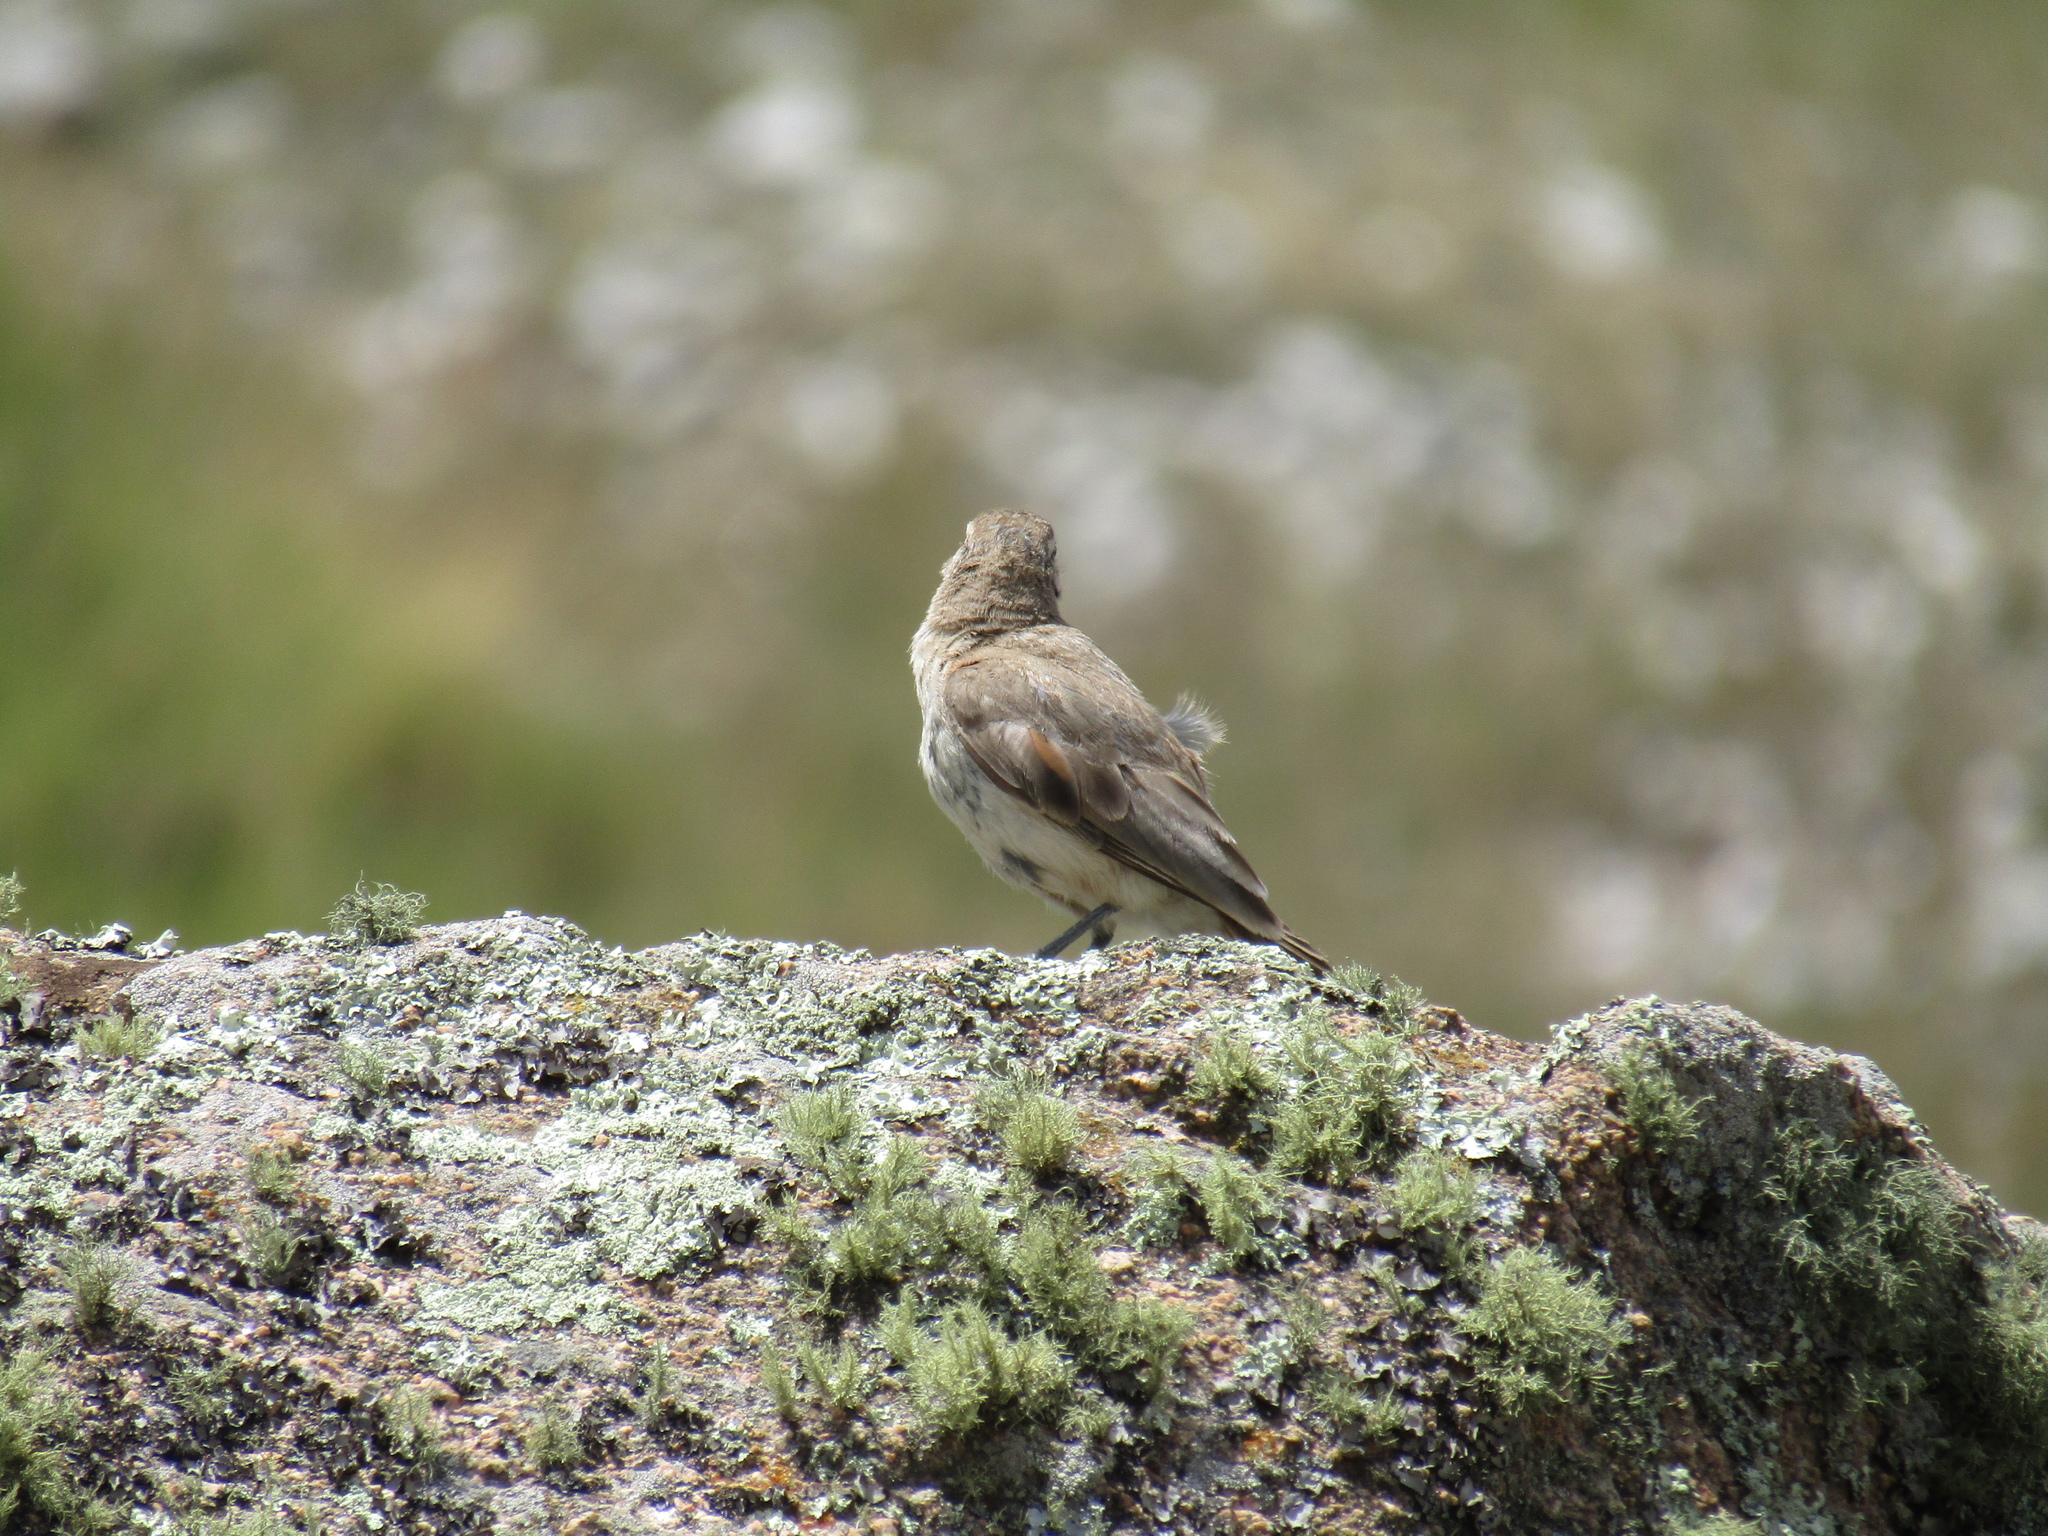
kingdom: Animalia
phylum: Chordata
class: Aves
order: Passeriformes
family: Furnariidae
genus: Geositta
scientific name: Geositta rufipennis
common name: Rufous-banded miner
